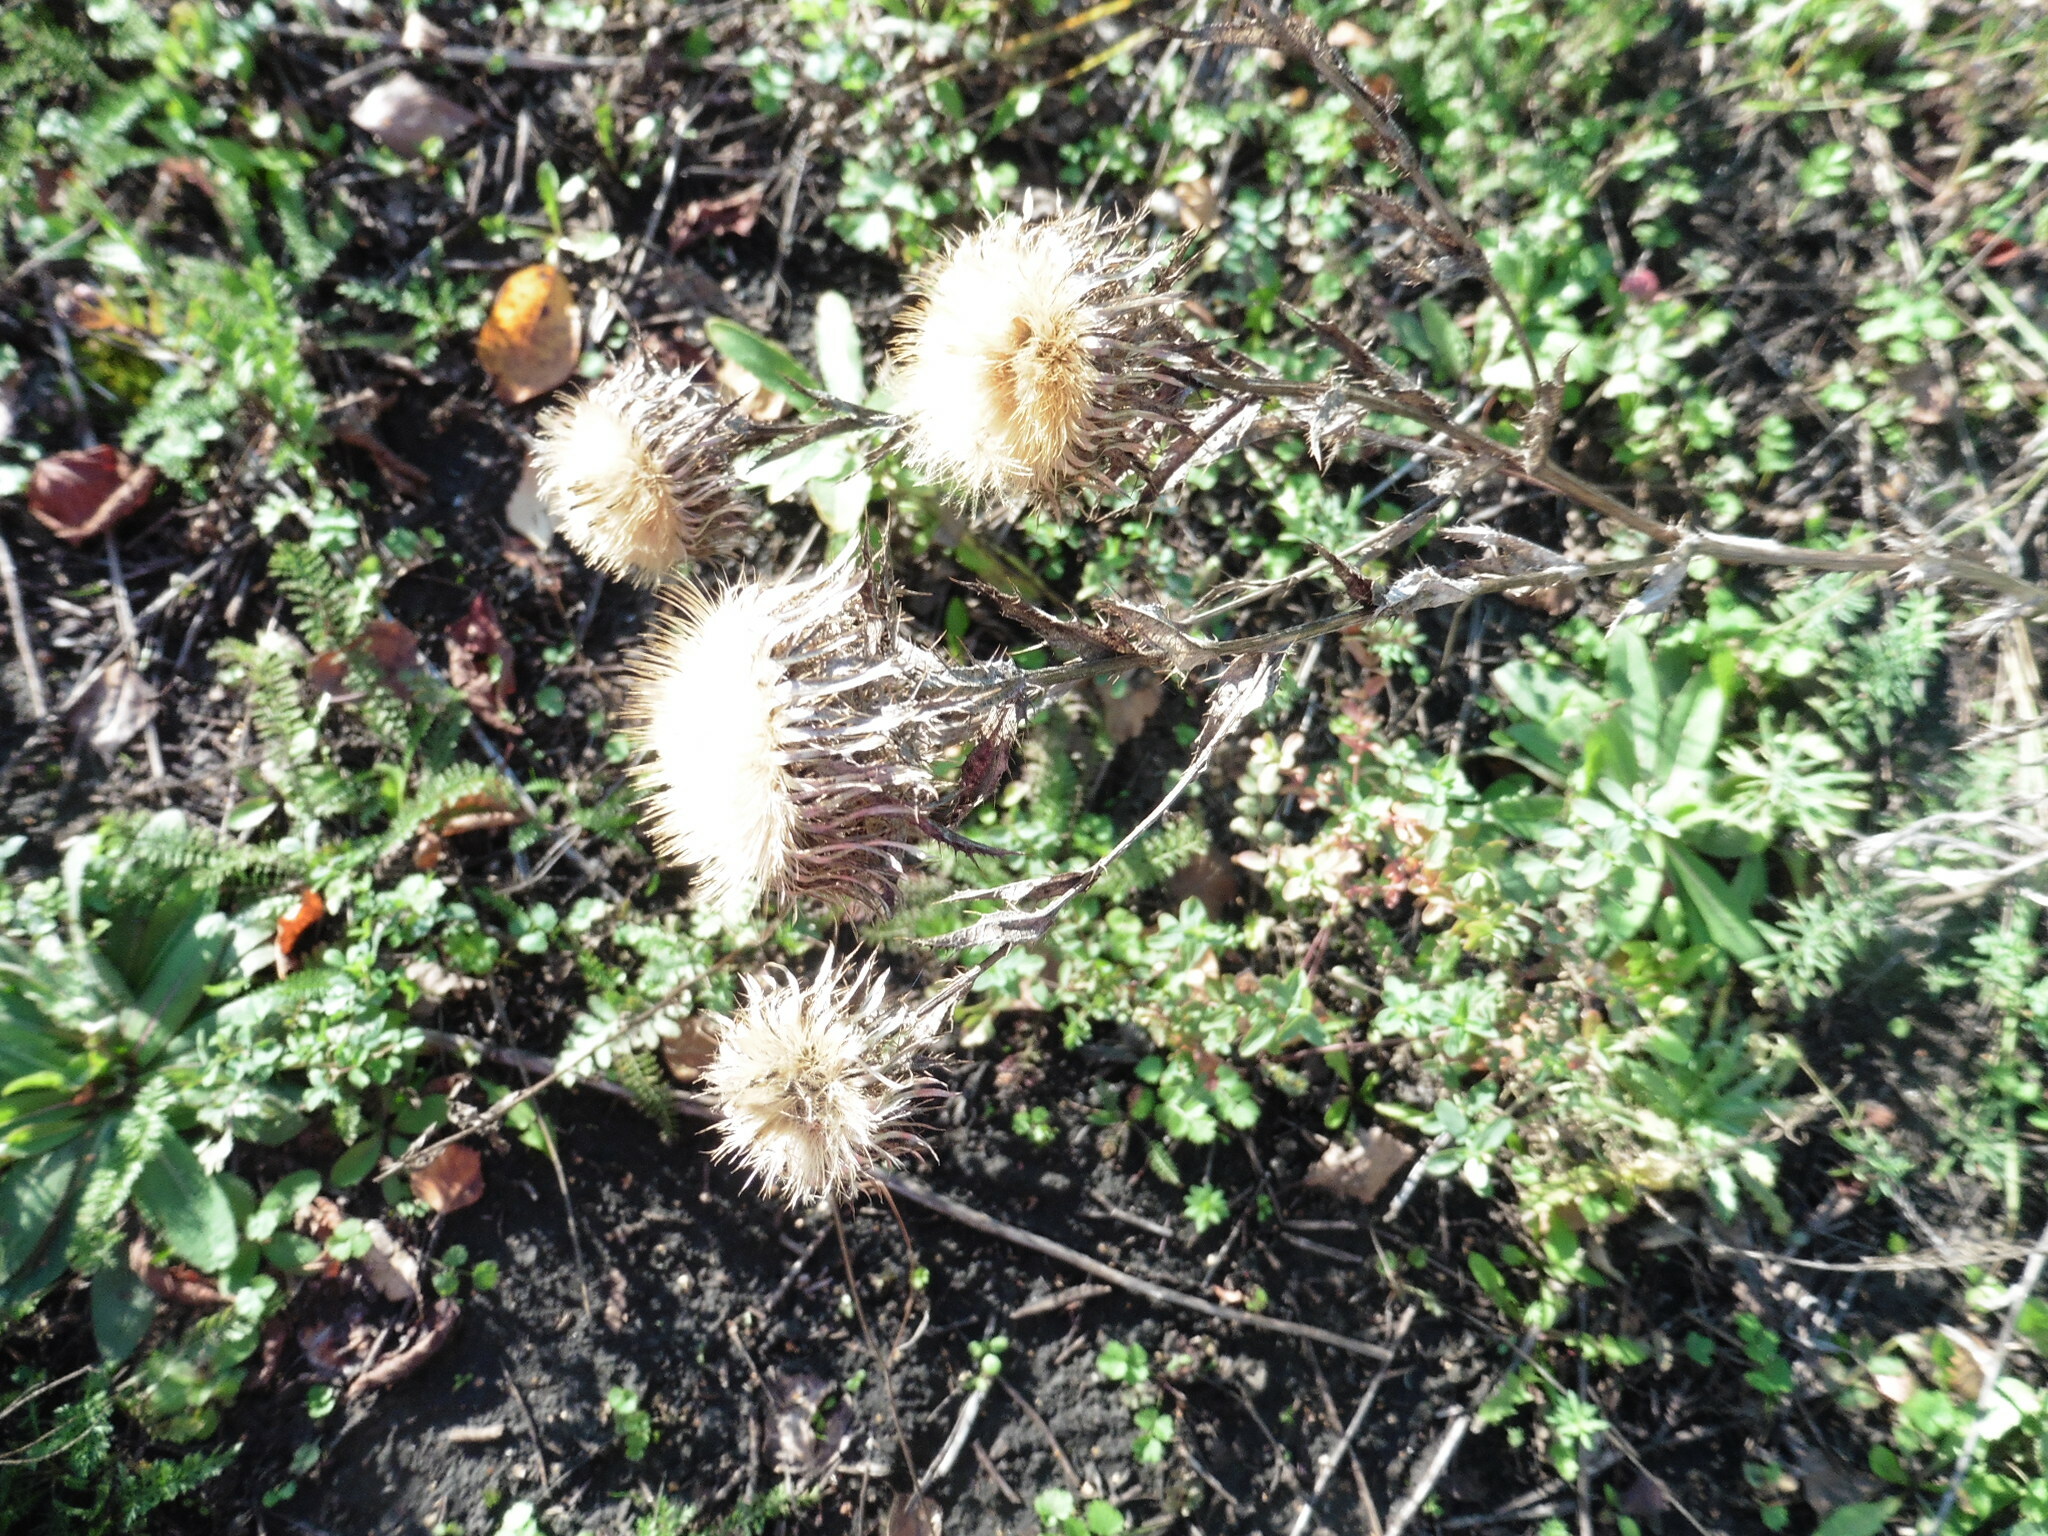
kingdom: Plantae
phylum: Tracheophyta
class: Magnoliopsida
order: Asterales
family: Asteraceae
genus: Carlina
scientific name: Carlina biebersteinii
